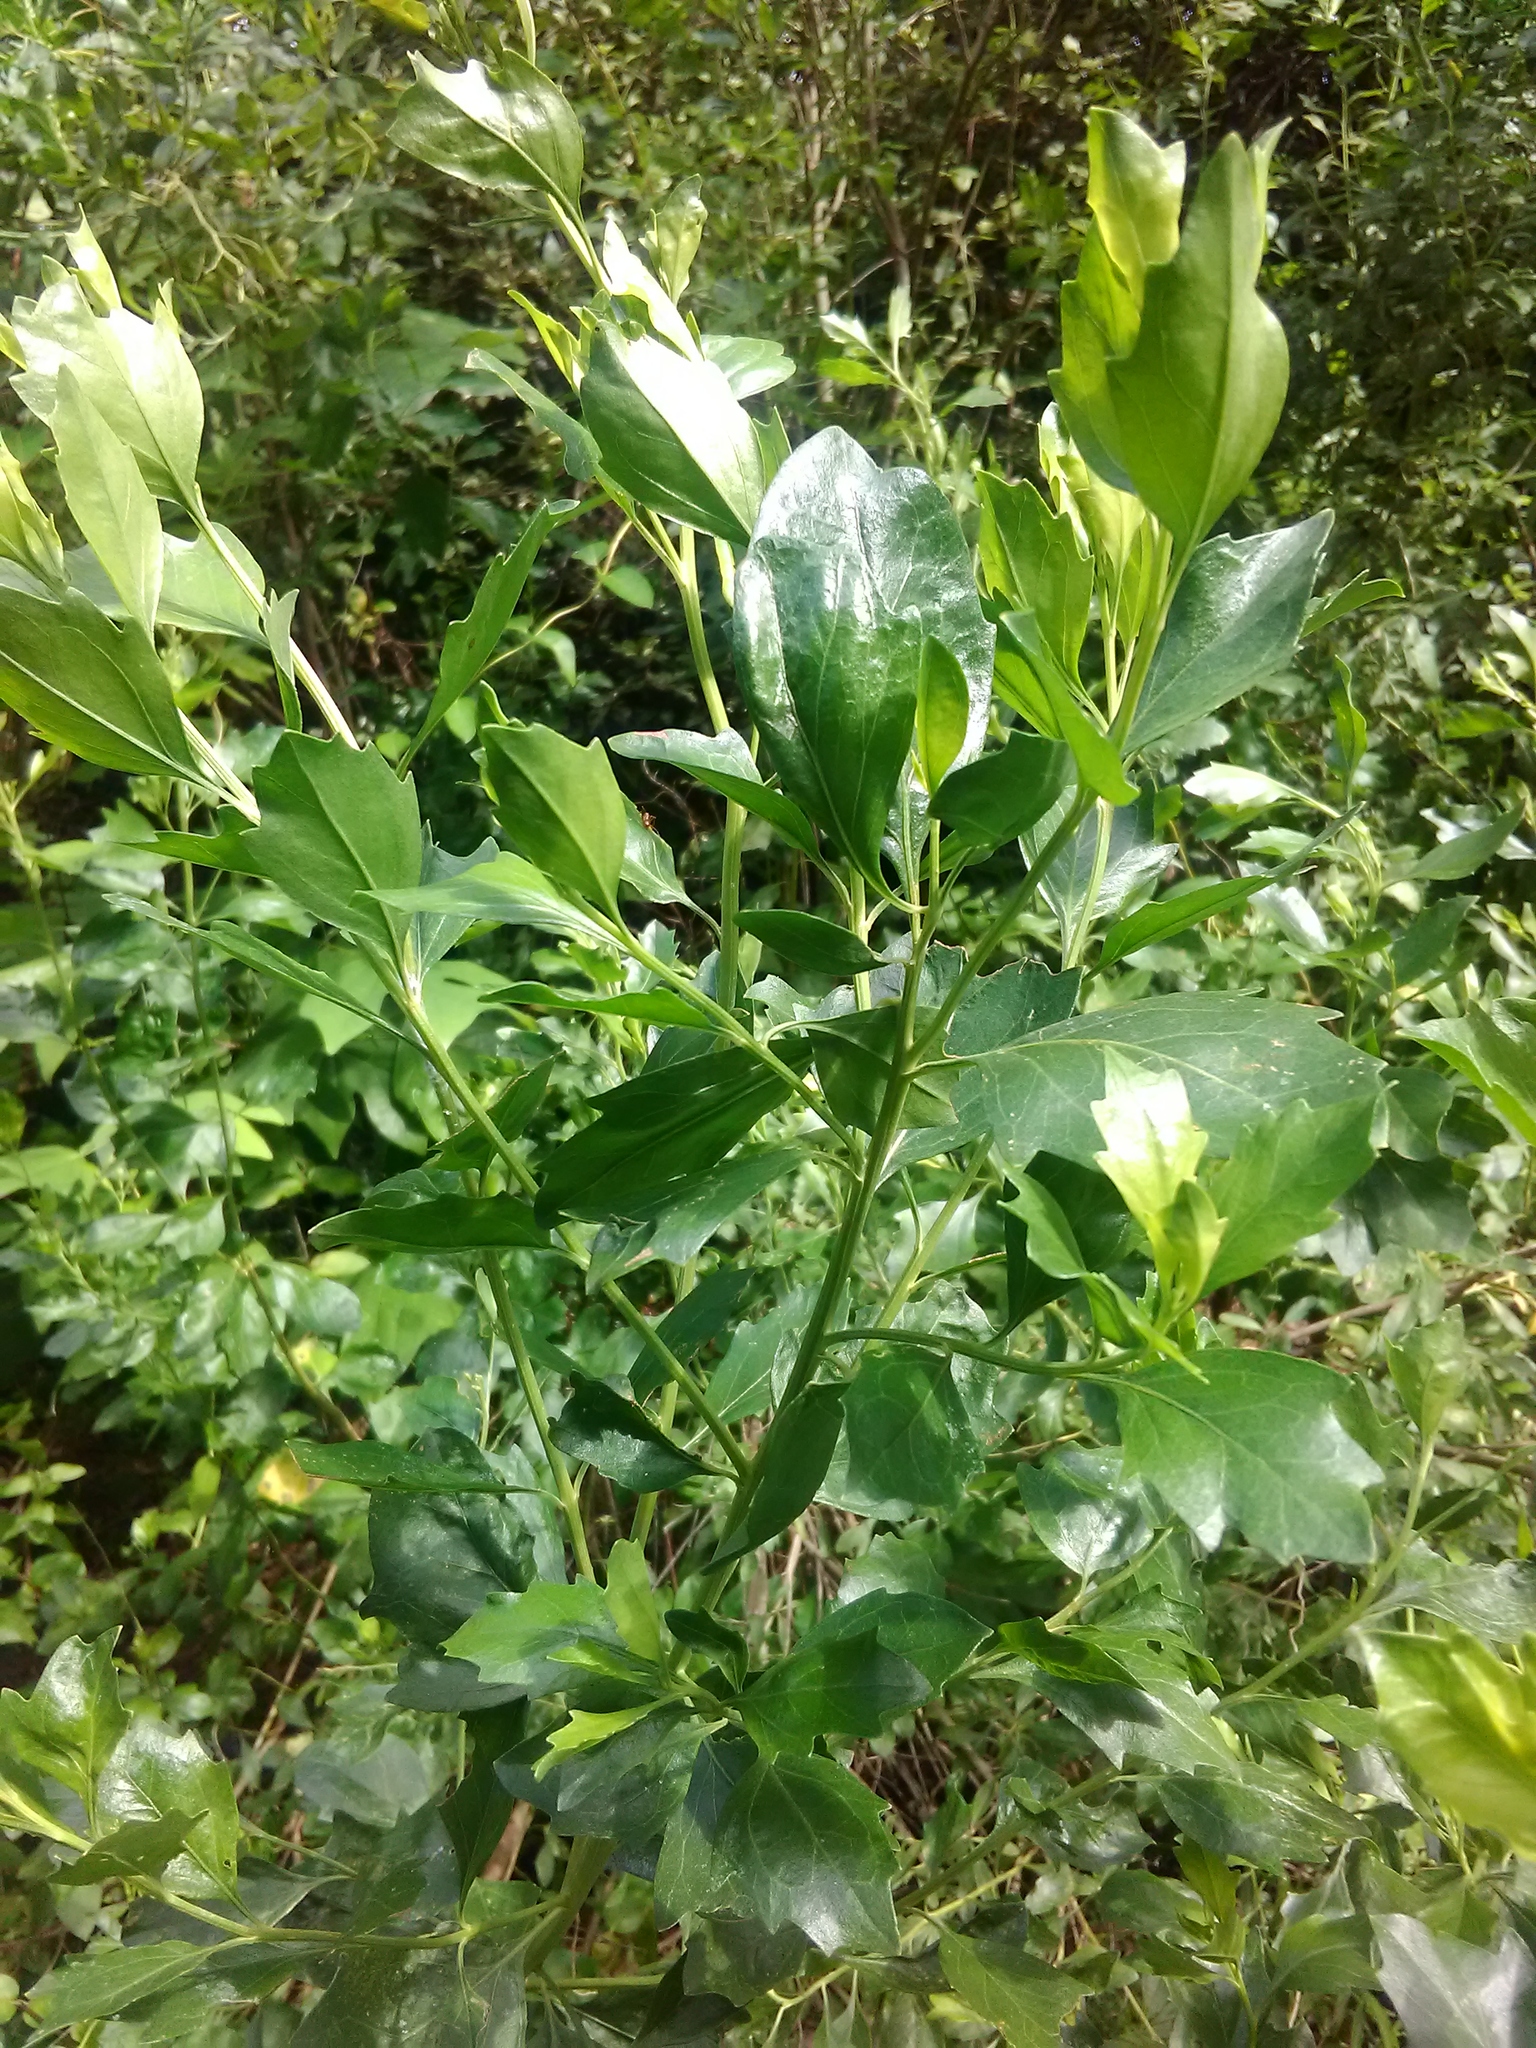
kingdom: Plantae
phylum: Tracheophyta
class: Magnoliopsida
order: Asterales
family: Asteraceae
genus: Baccharis
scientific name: Baccharis halimifolia
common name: Eastern baccharis
